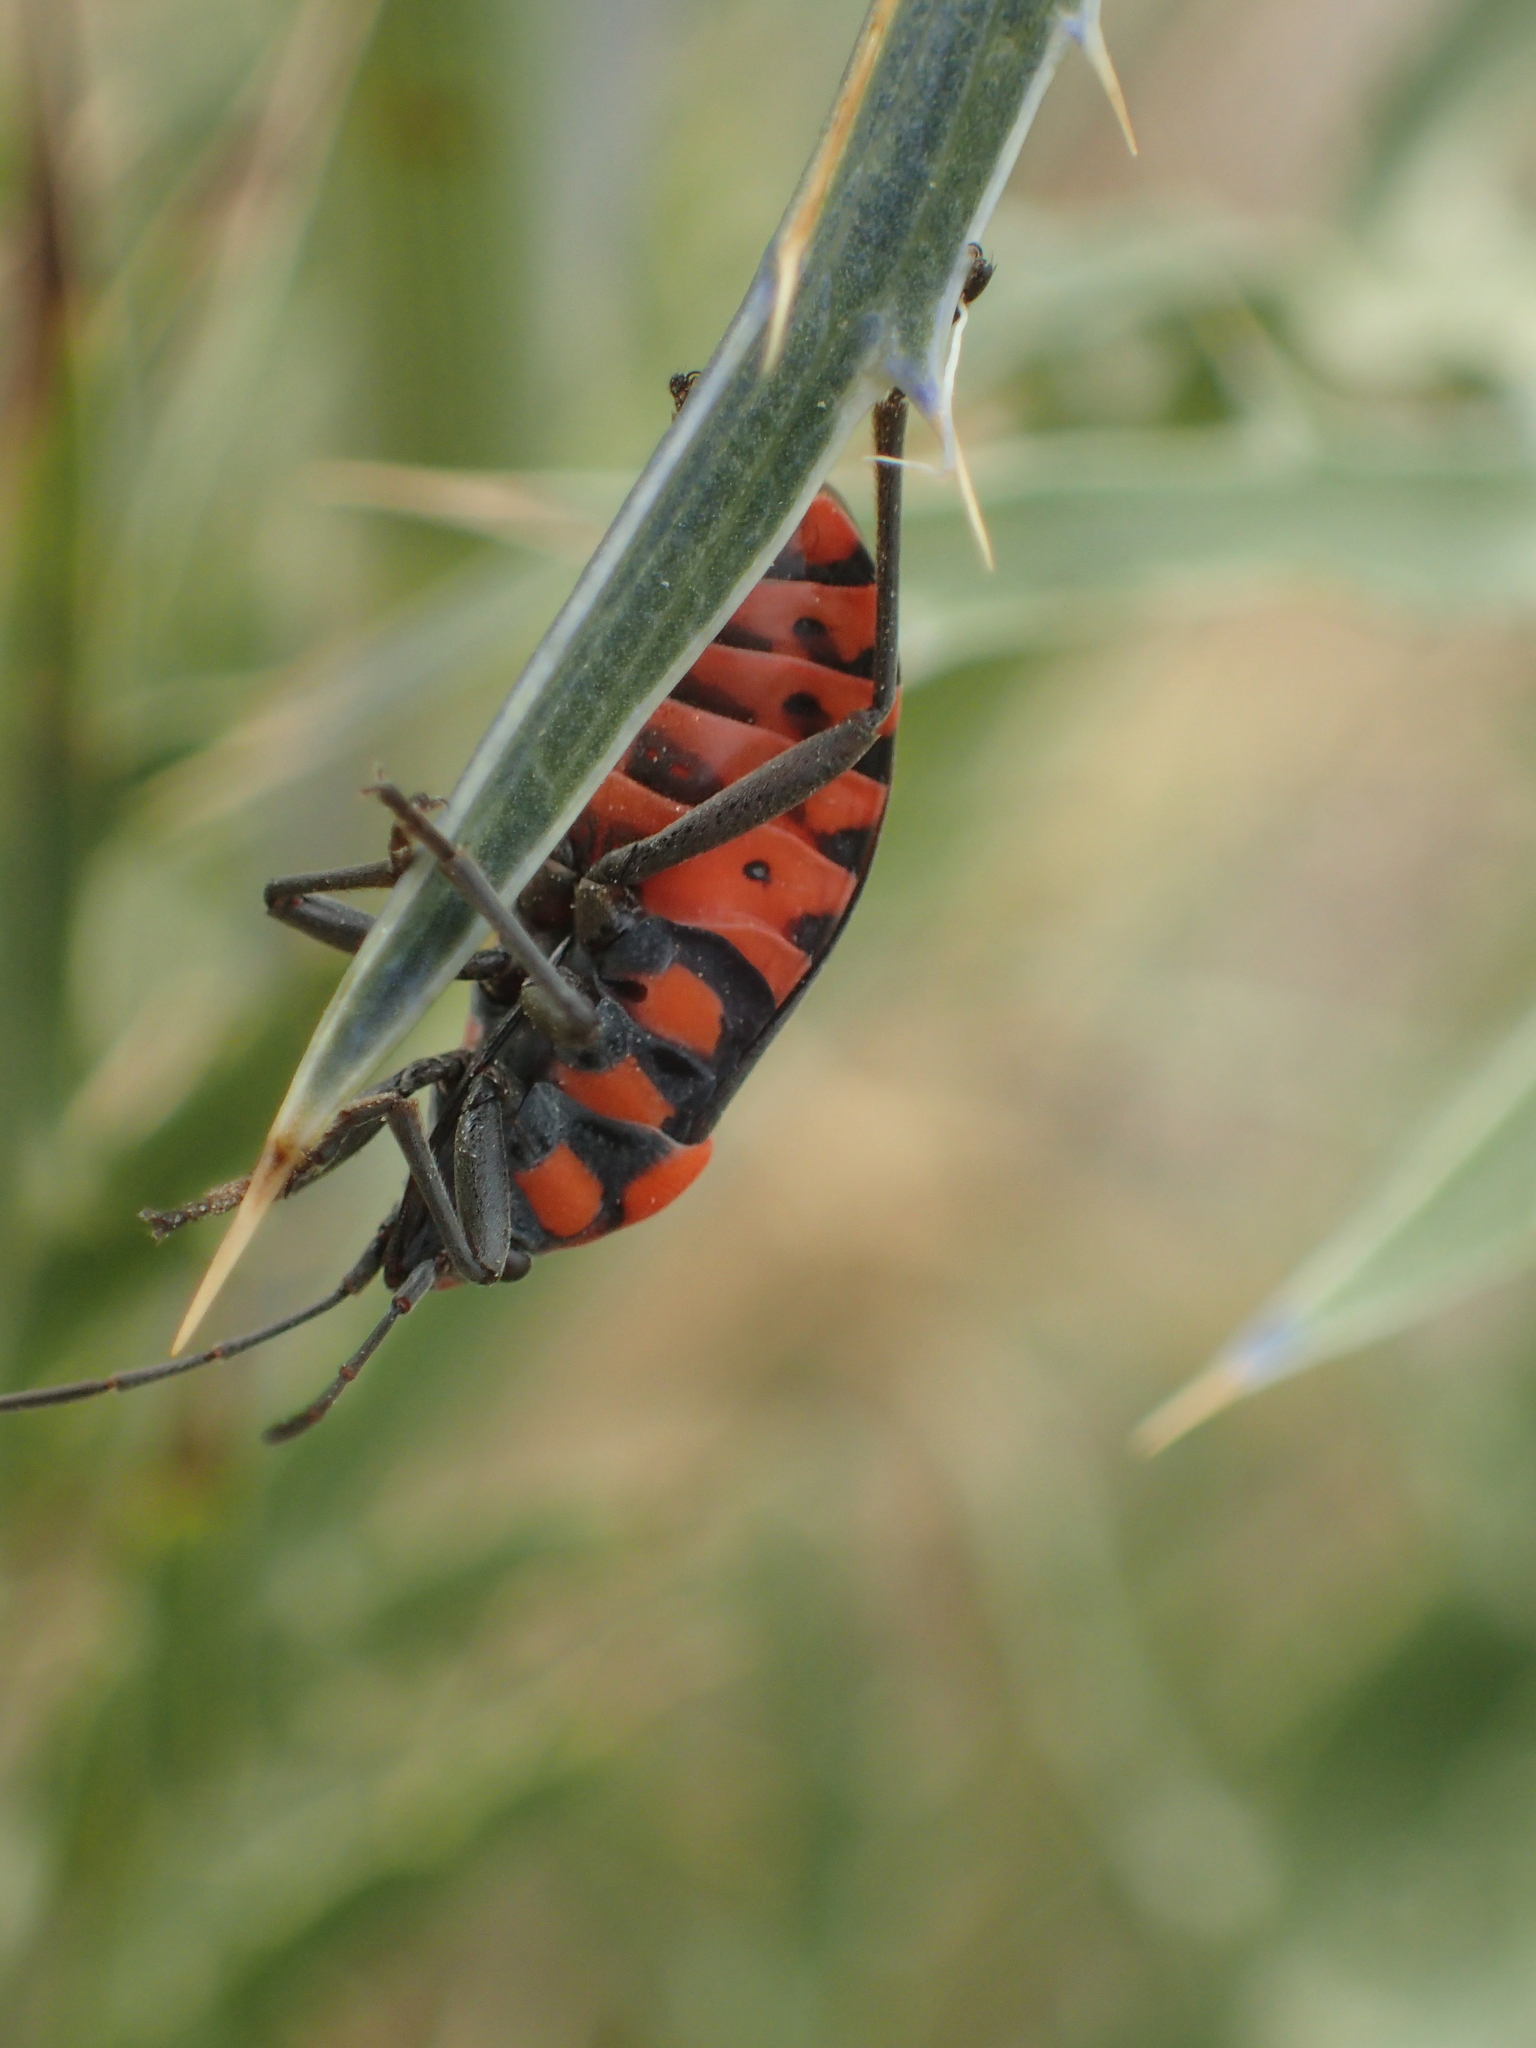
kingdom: Animalia
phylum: Arthropoda
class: Insecta
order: Hemiptera
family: Lygaeidae
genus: Spilostethus
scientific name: Spilostethus saxatilis
